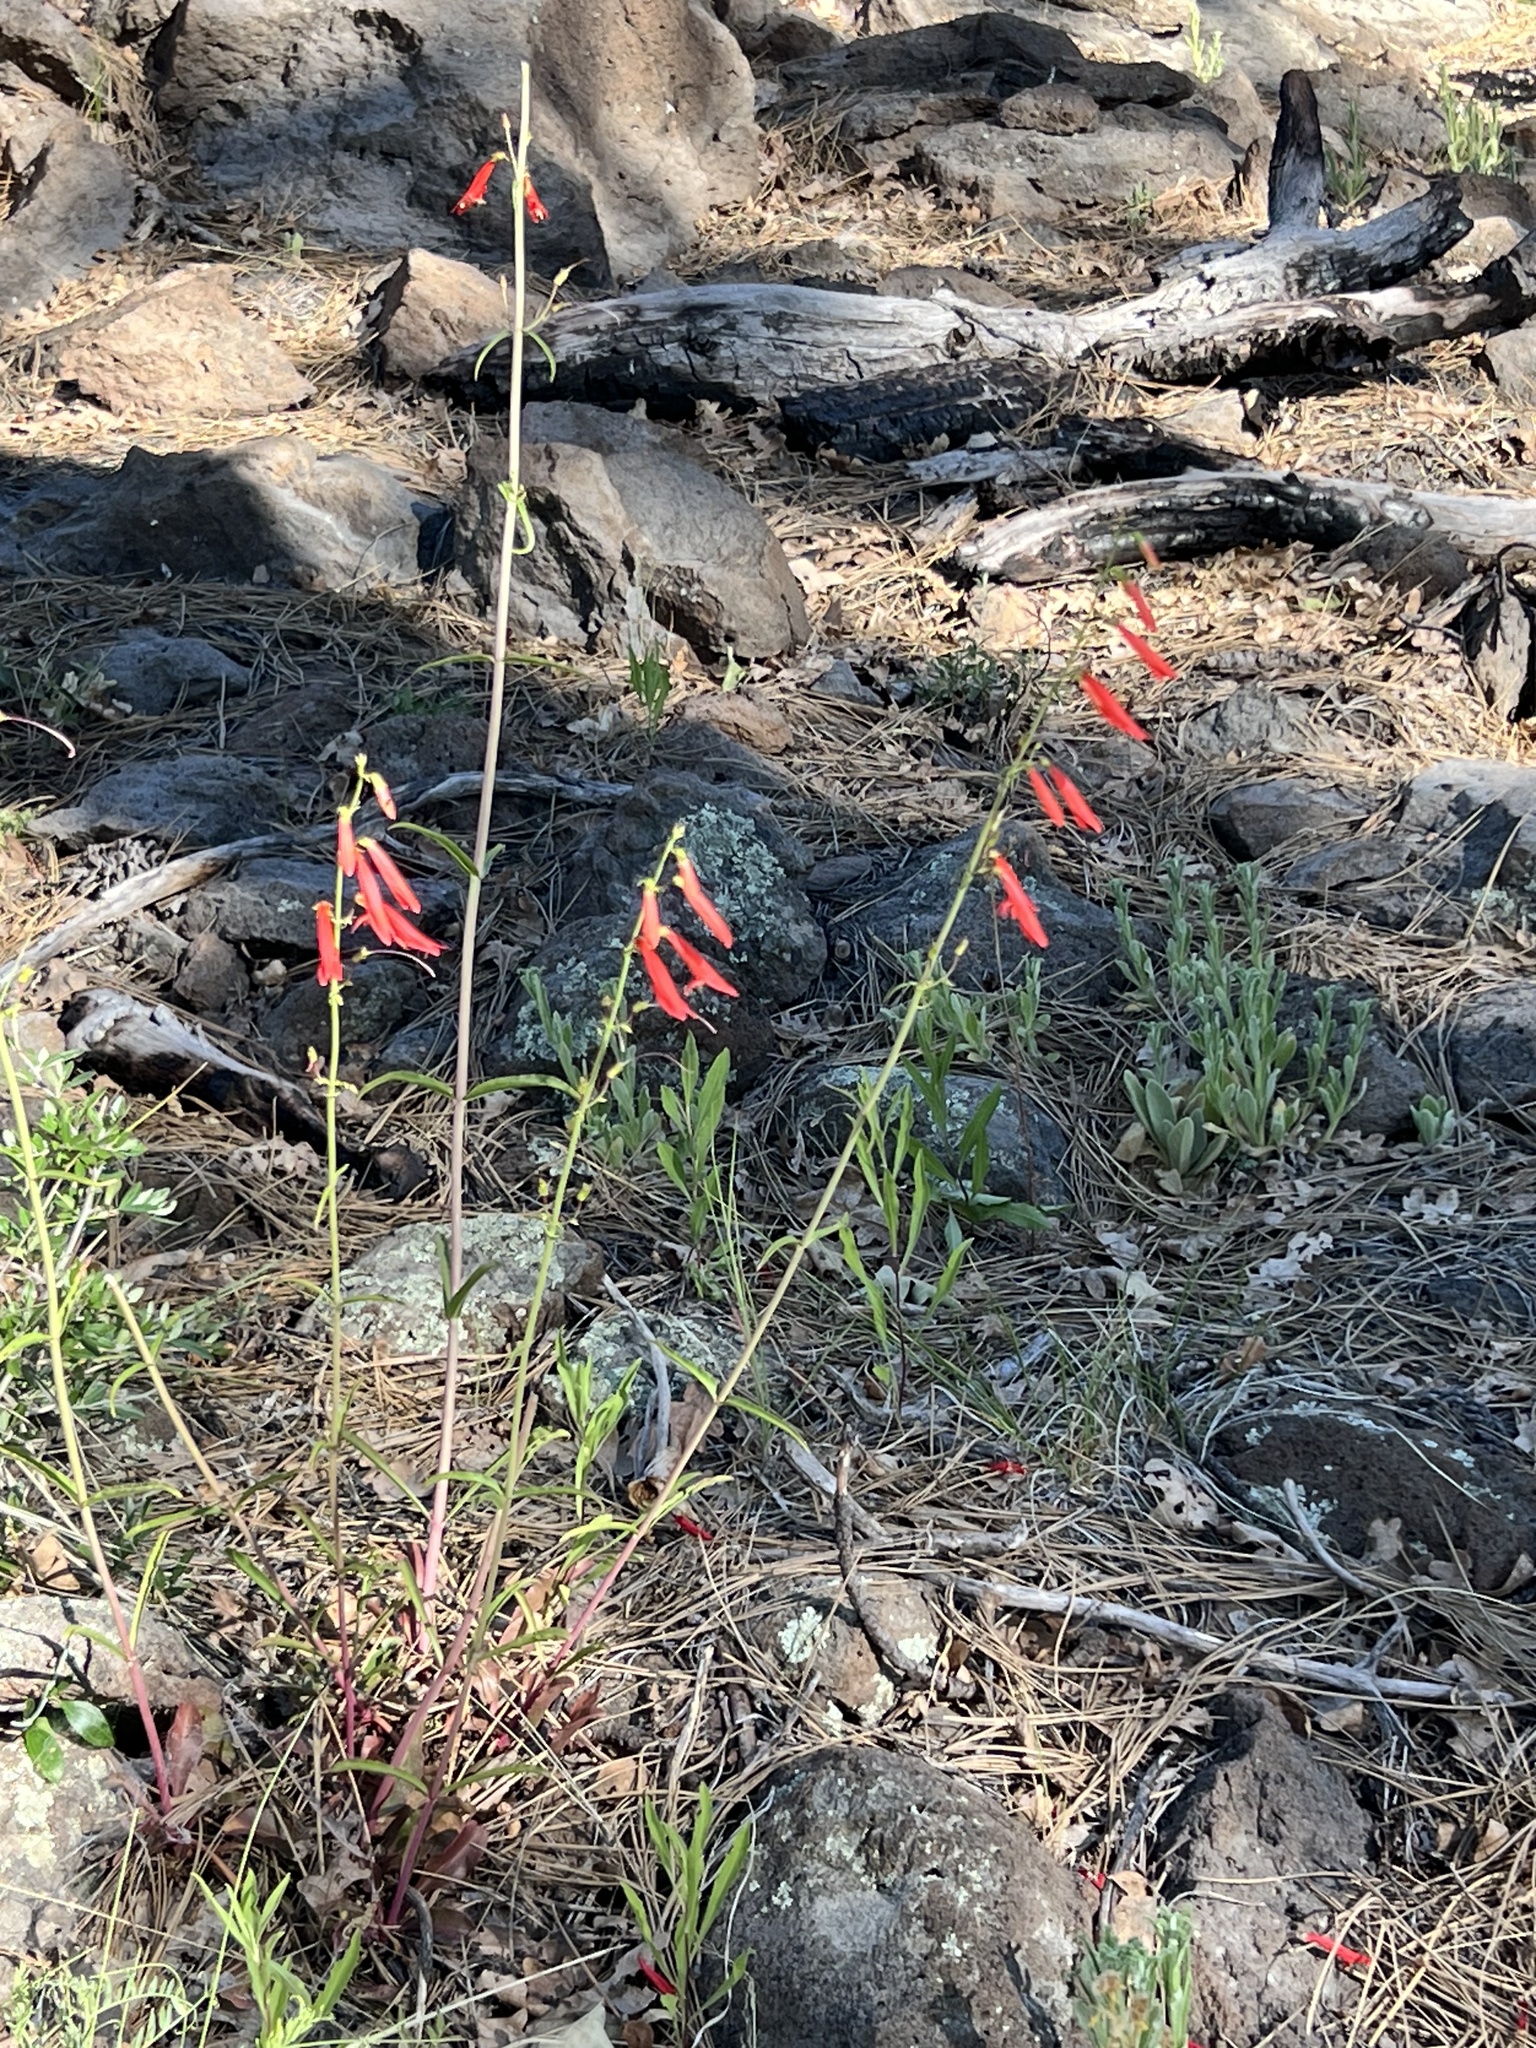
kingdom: Plantae
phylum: Tracheophyta
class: Magnoliopsida
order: Lamiales
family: Plantaginaceae
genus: Penstemon
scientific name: Penstemon barbatus
